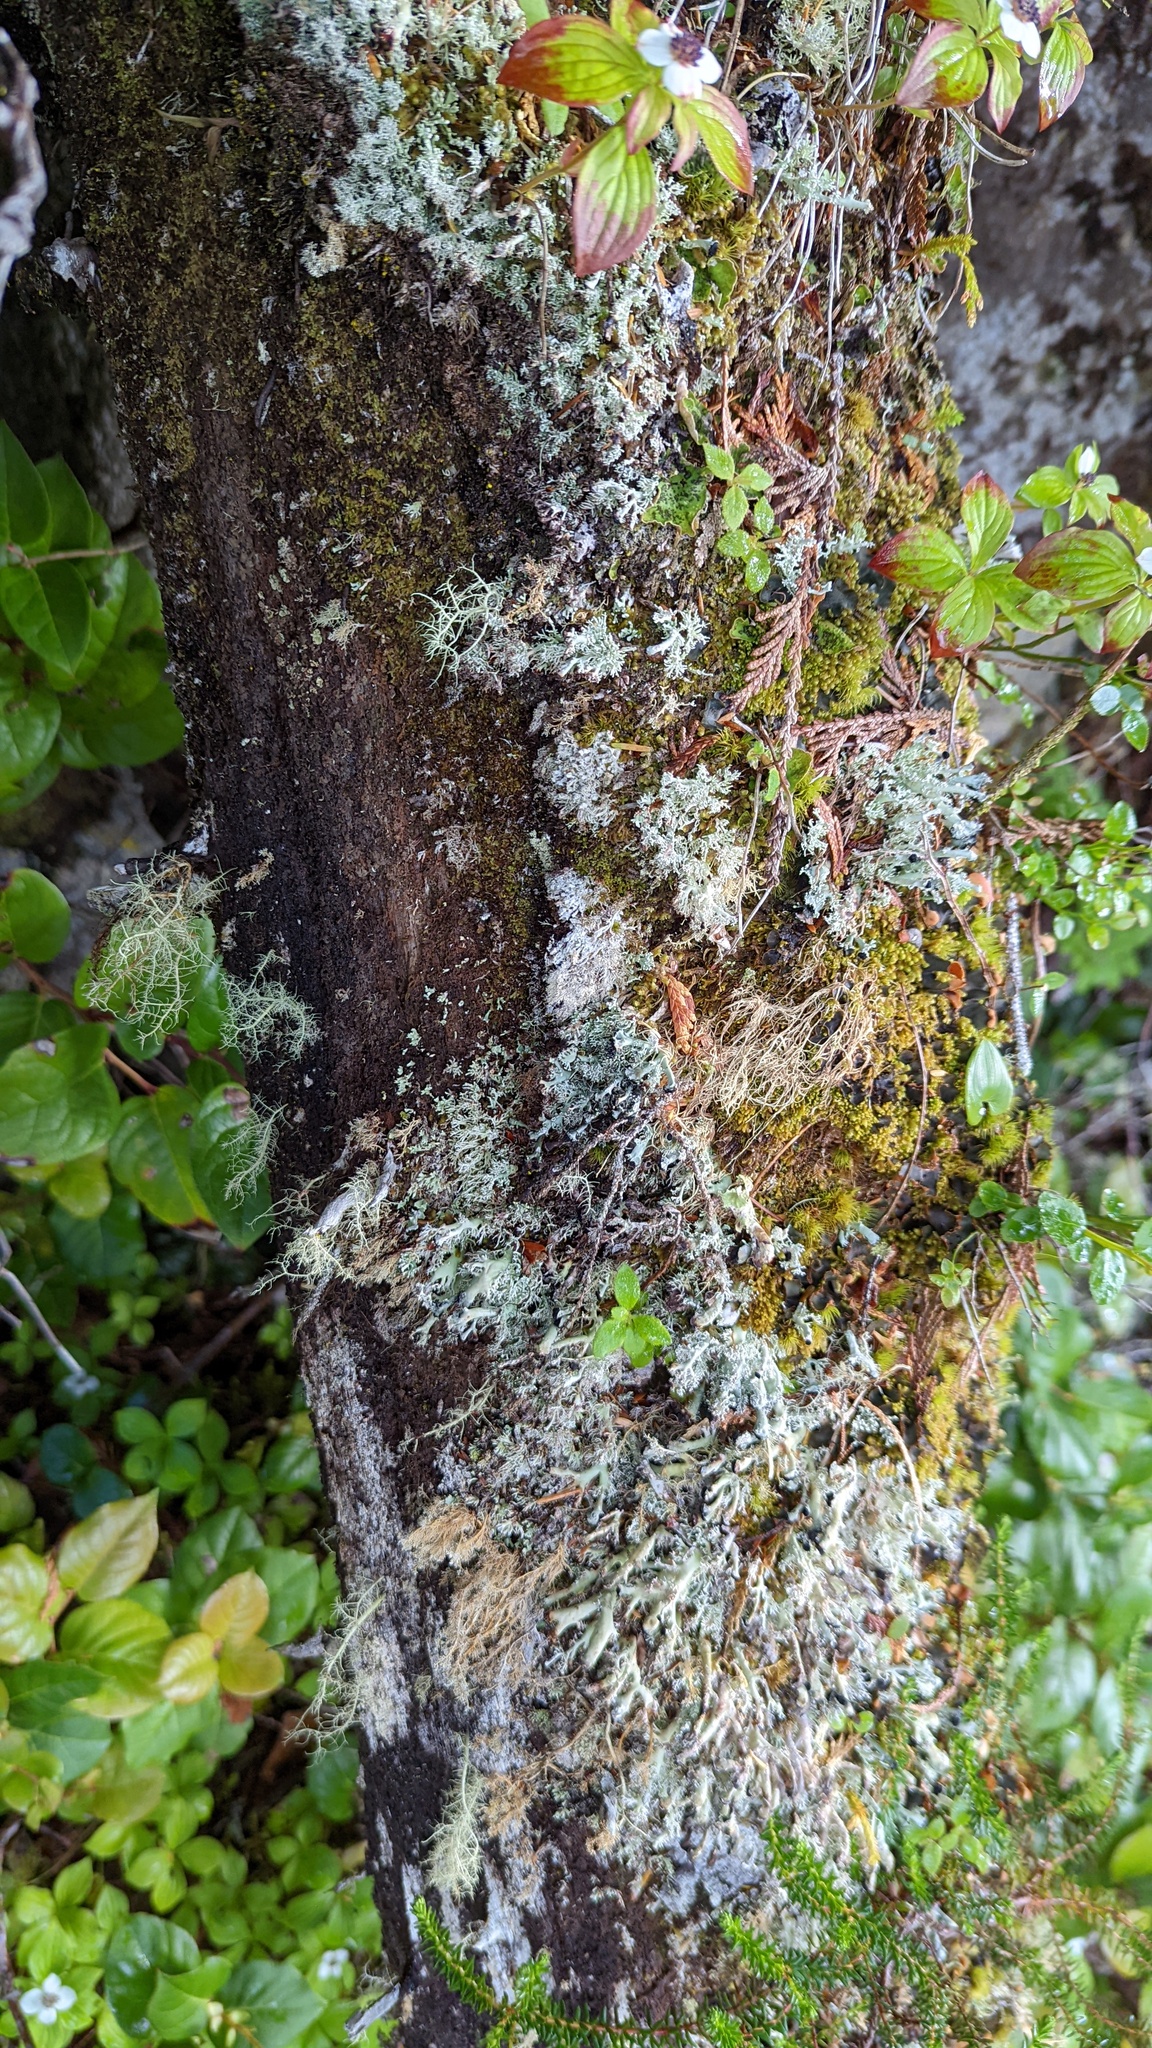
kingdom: Fungi
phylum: Ascomycota
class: Lecanoromycetes
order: Lecanorales
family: Sphaerophoraceae
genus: Bunodophoron
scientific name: Bunodophoron melanocarpum
